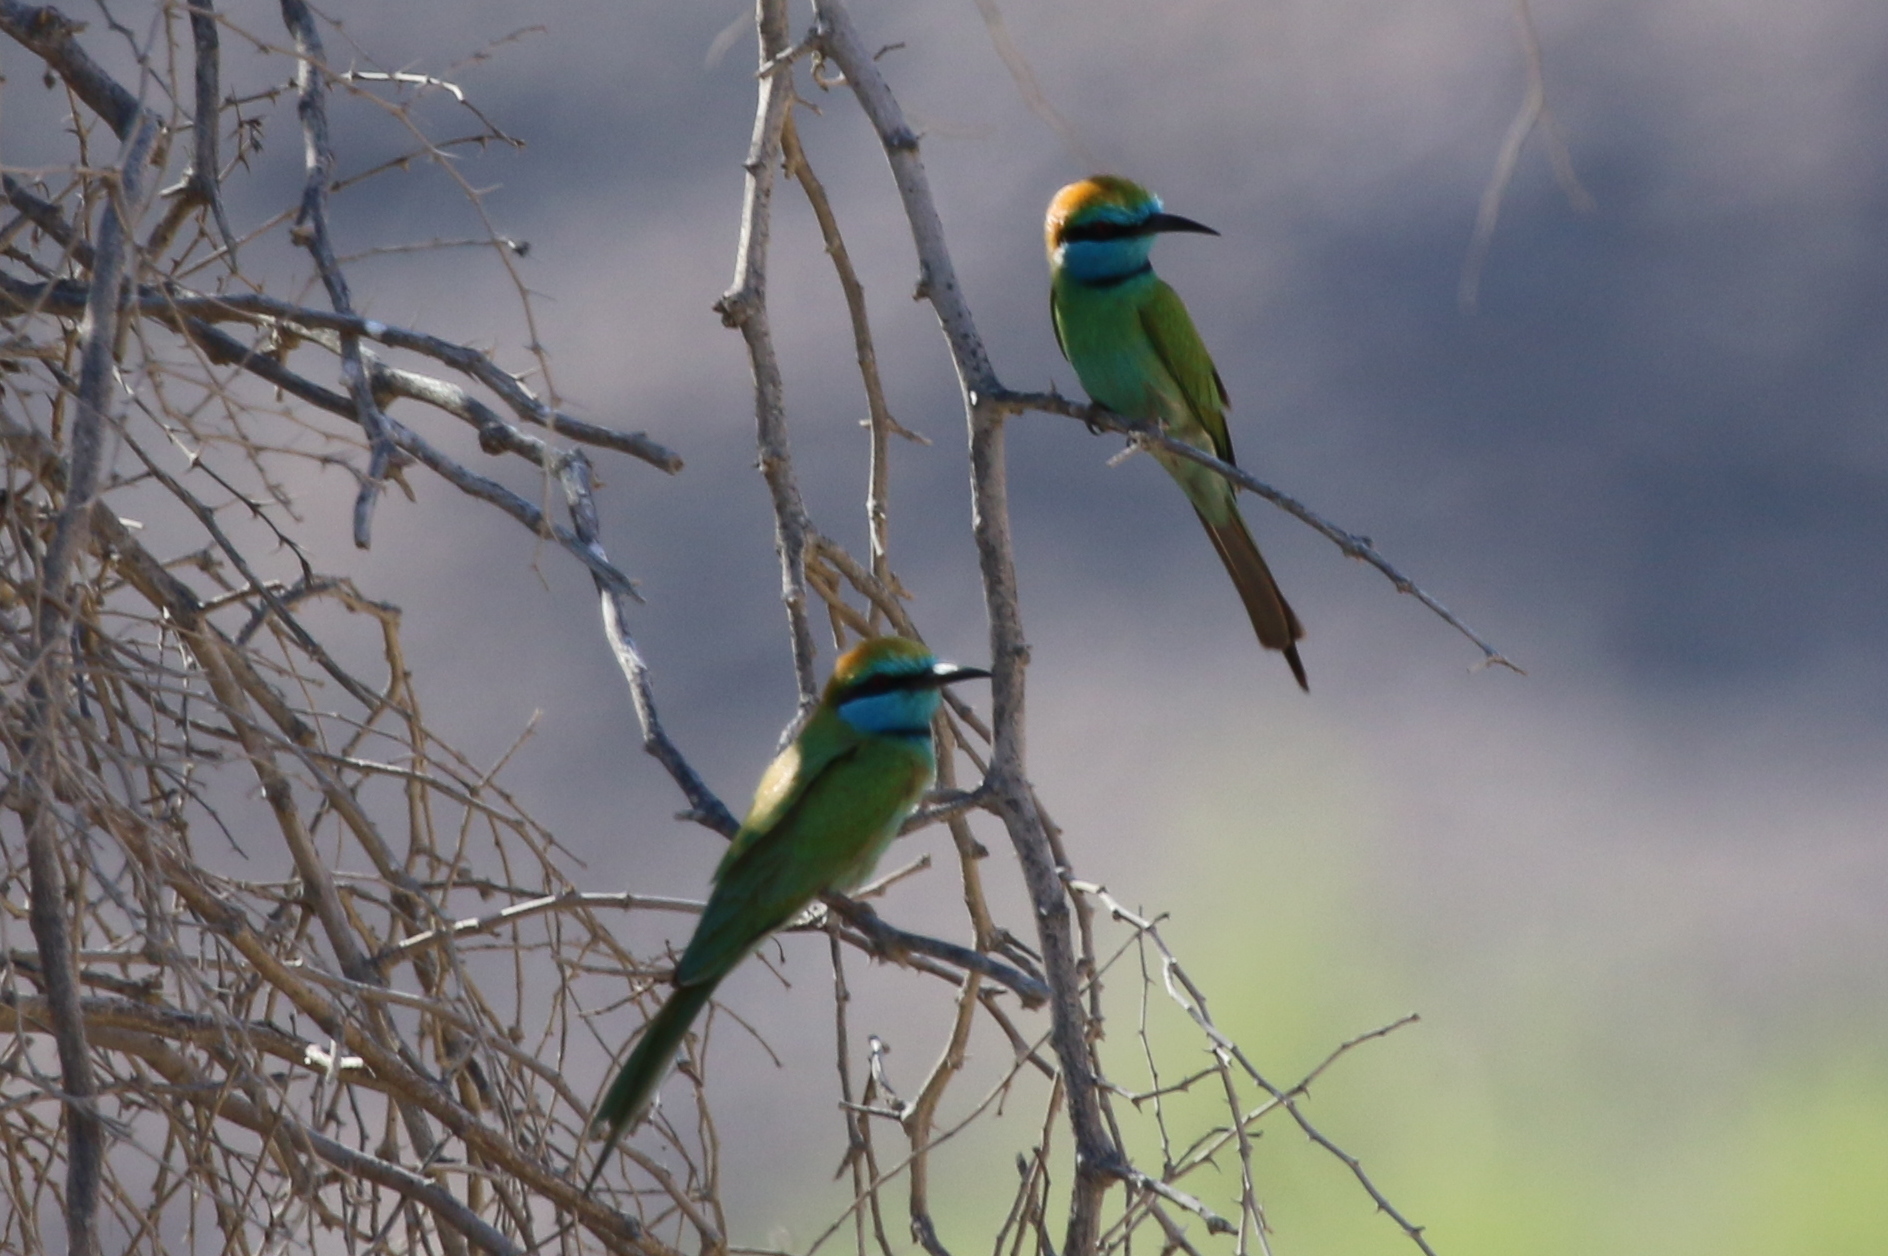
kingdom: Animalia
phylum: Chordata
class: Aves
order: Coraciiformes
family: Meropidae
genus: Merops
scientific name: Merops cyanophrys
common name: Arabian green bee-eater
